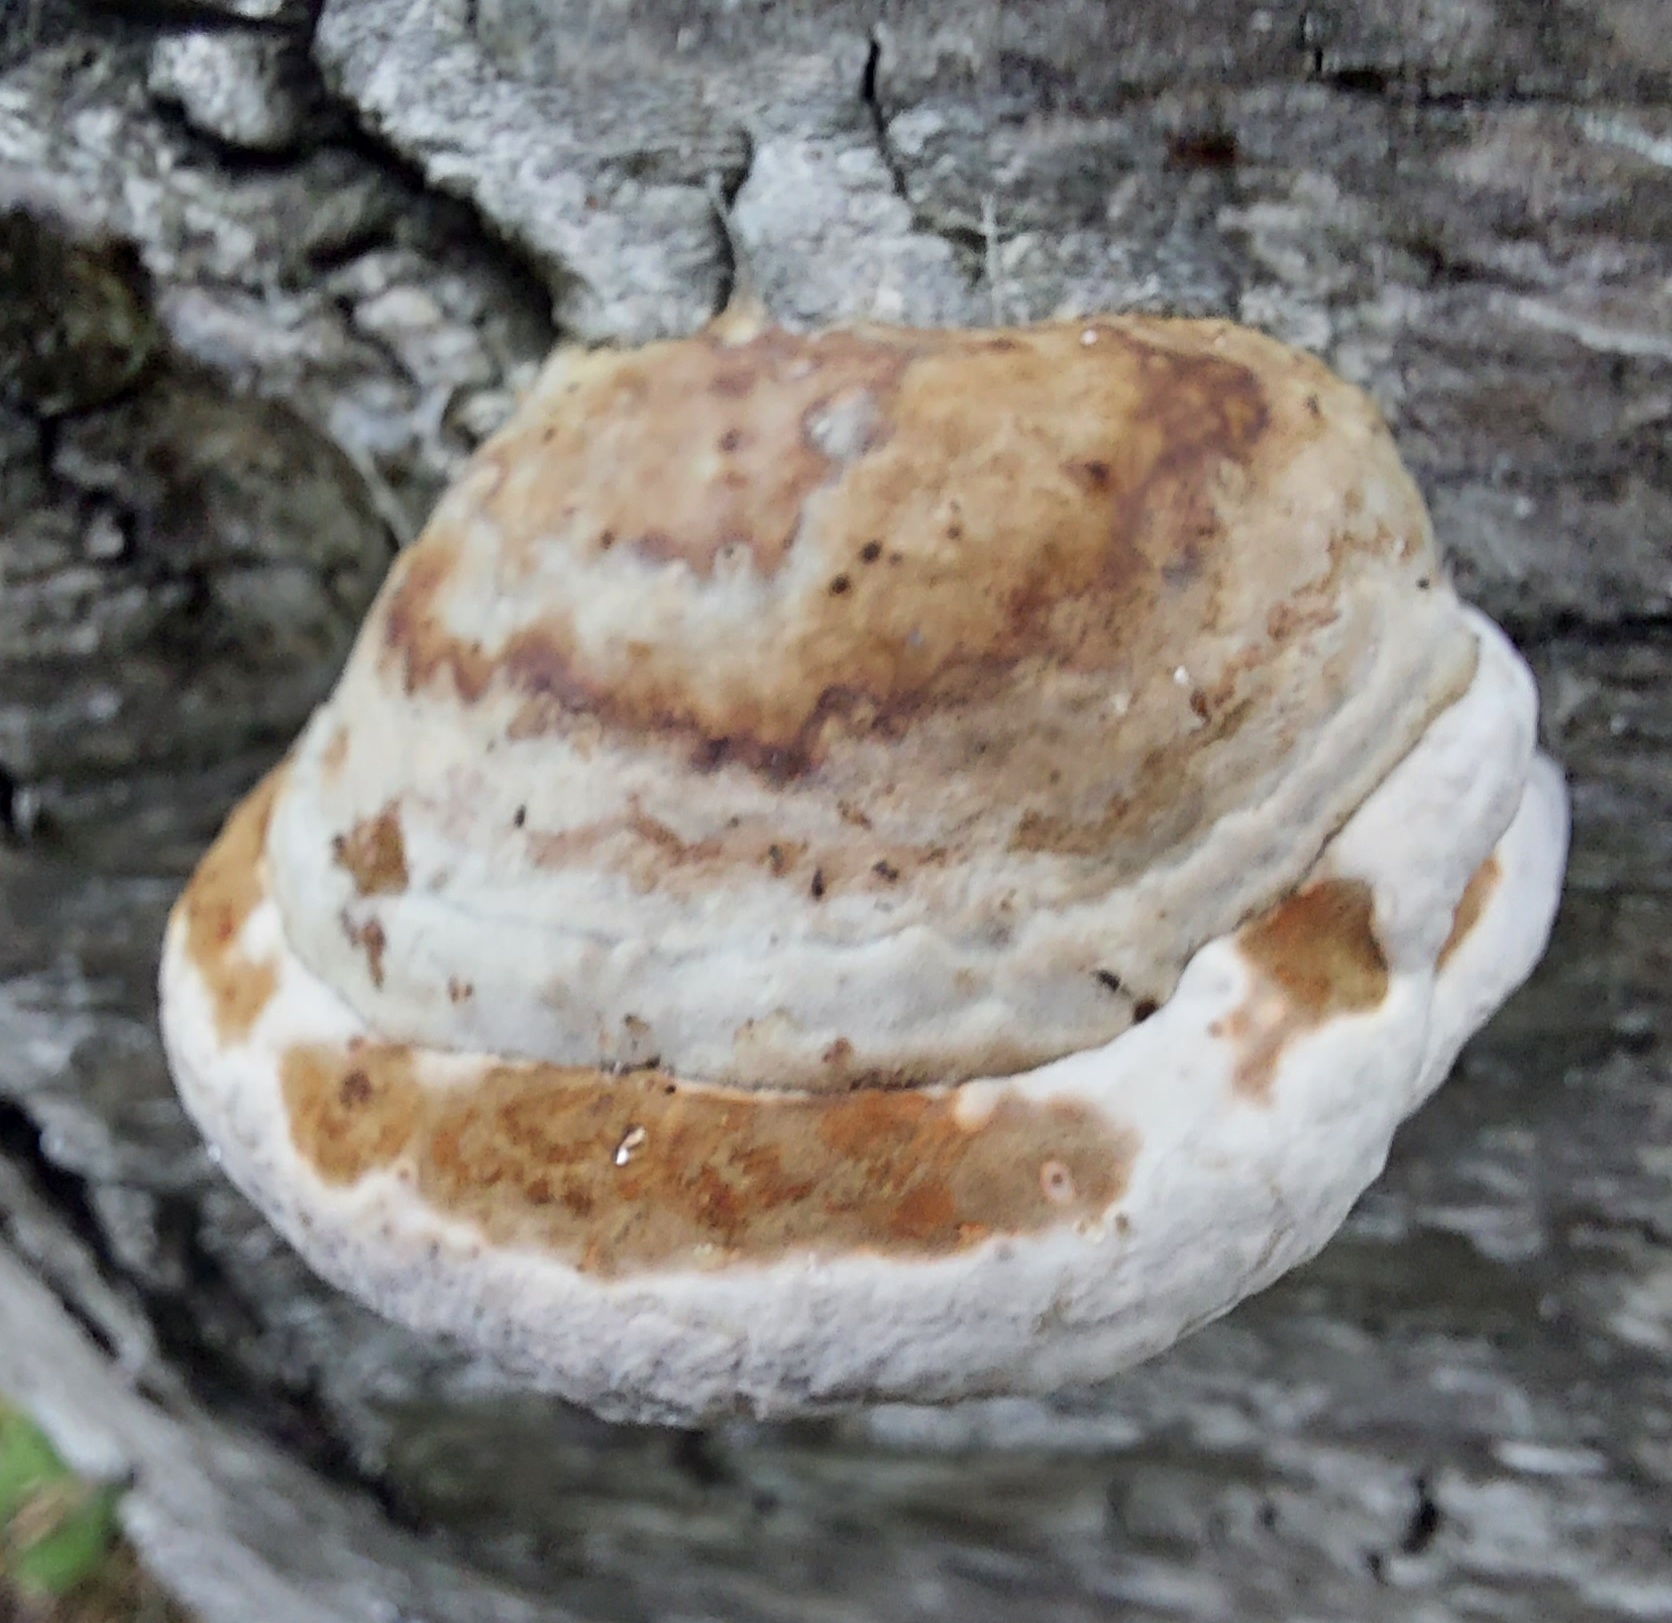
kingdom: Fungi
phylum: Basidiomycota
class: Agaricomycetes
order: Polyporales
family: Polyporaceae
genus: Fomes
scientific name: Fomes fomentarius
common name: Hoof fungus
